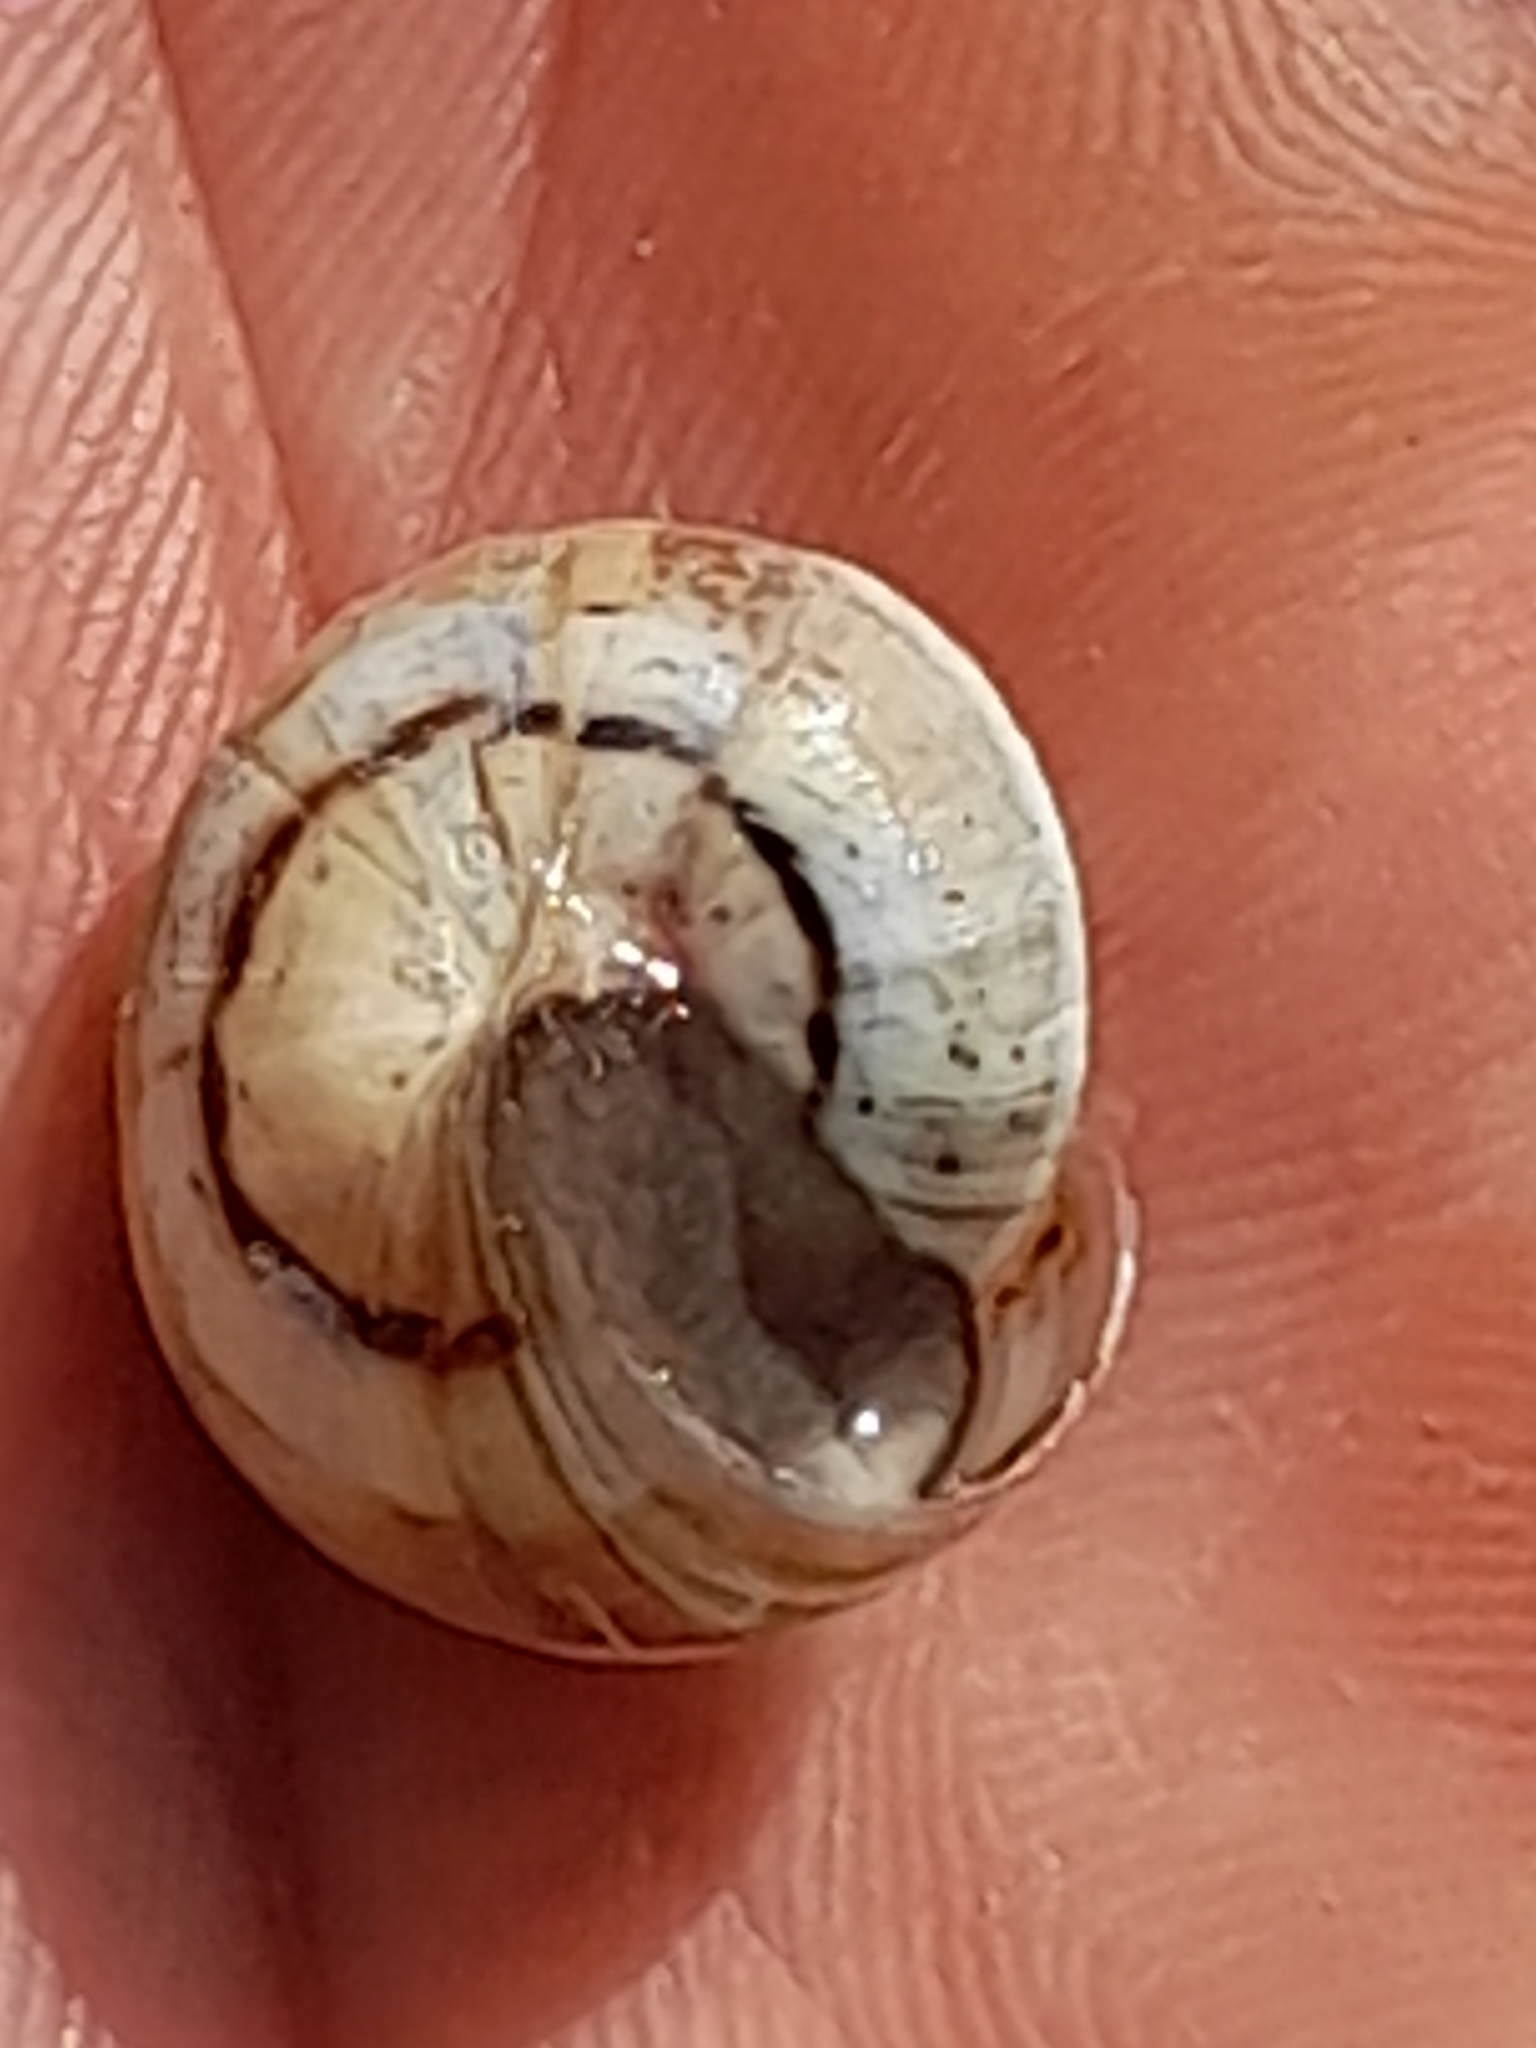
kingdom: Animalia
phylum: Mollusca
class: Gastropoda
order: Stylommatophora
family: Helicidae
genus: Theba
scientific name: Theba pisana
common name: White snail
